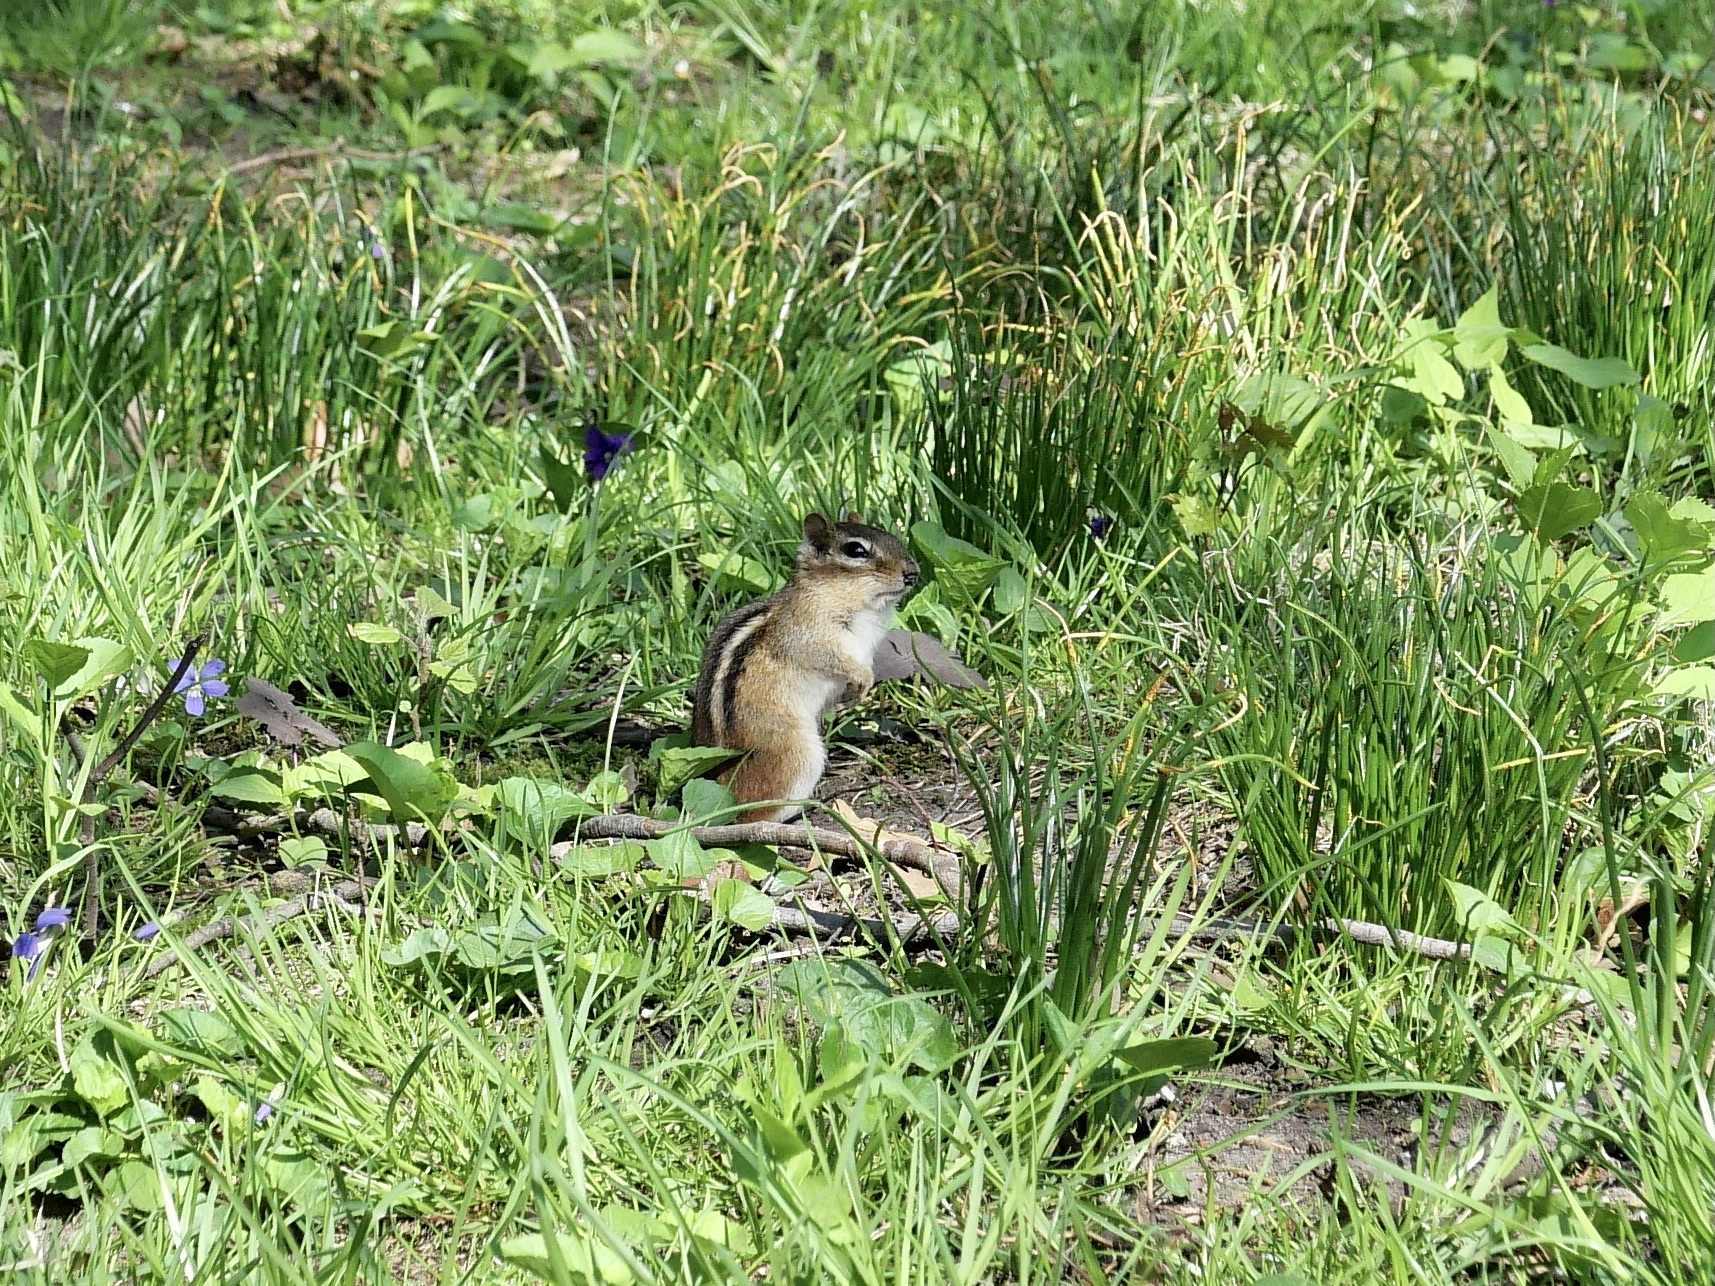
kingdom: Animalia
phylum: Chordata
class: Mammalia
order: Rodentia
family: Sciuridae
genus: Tamias
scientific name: Tamias striatus
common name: Eastern chipmunk
